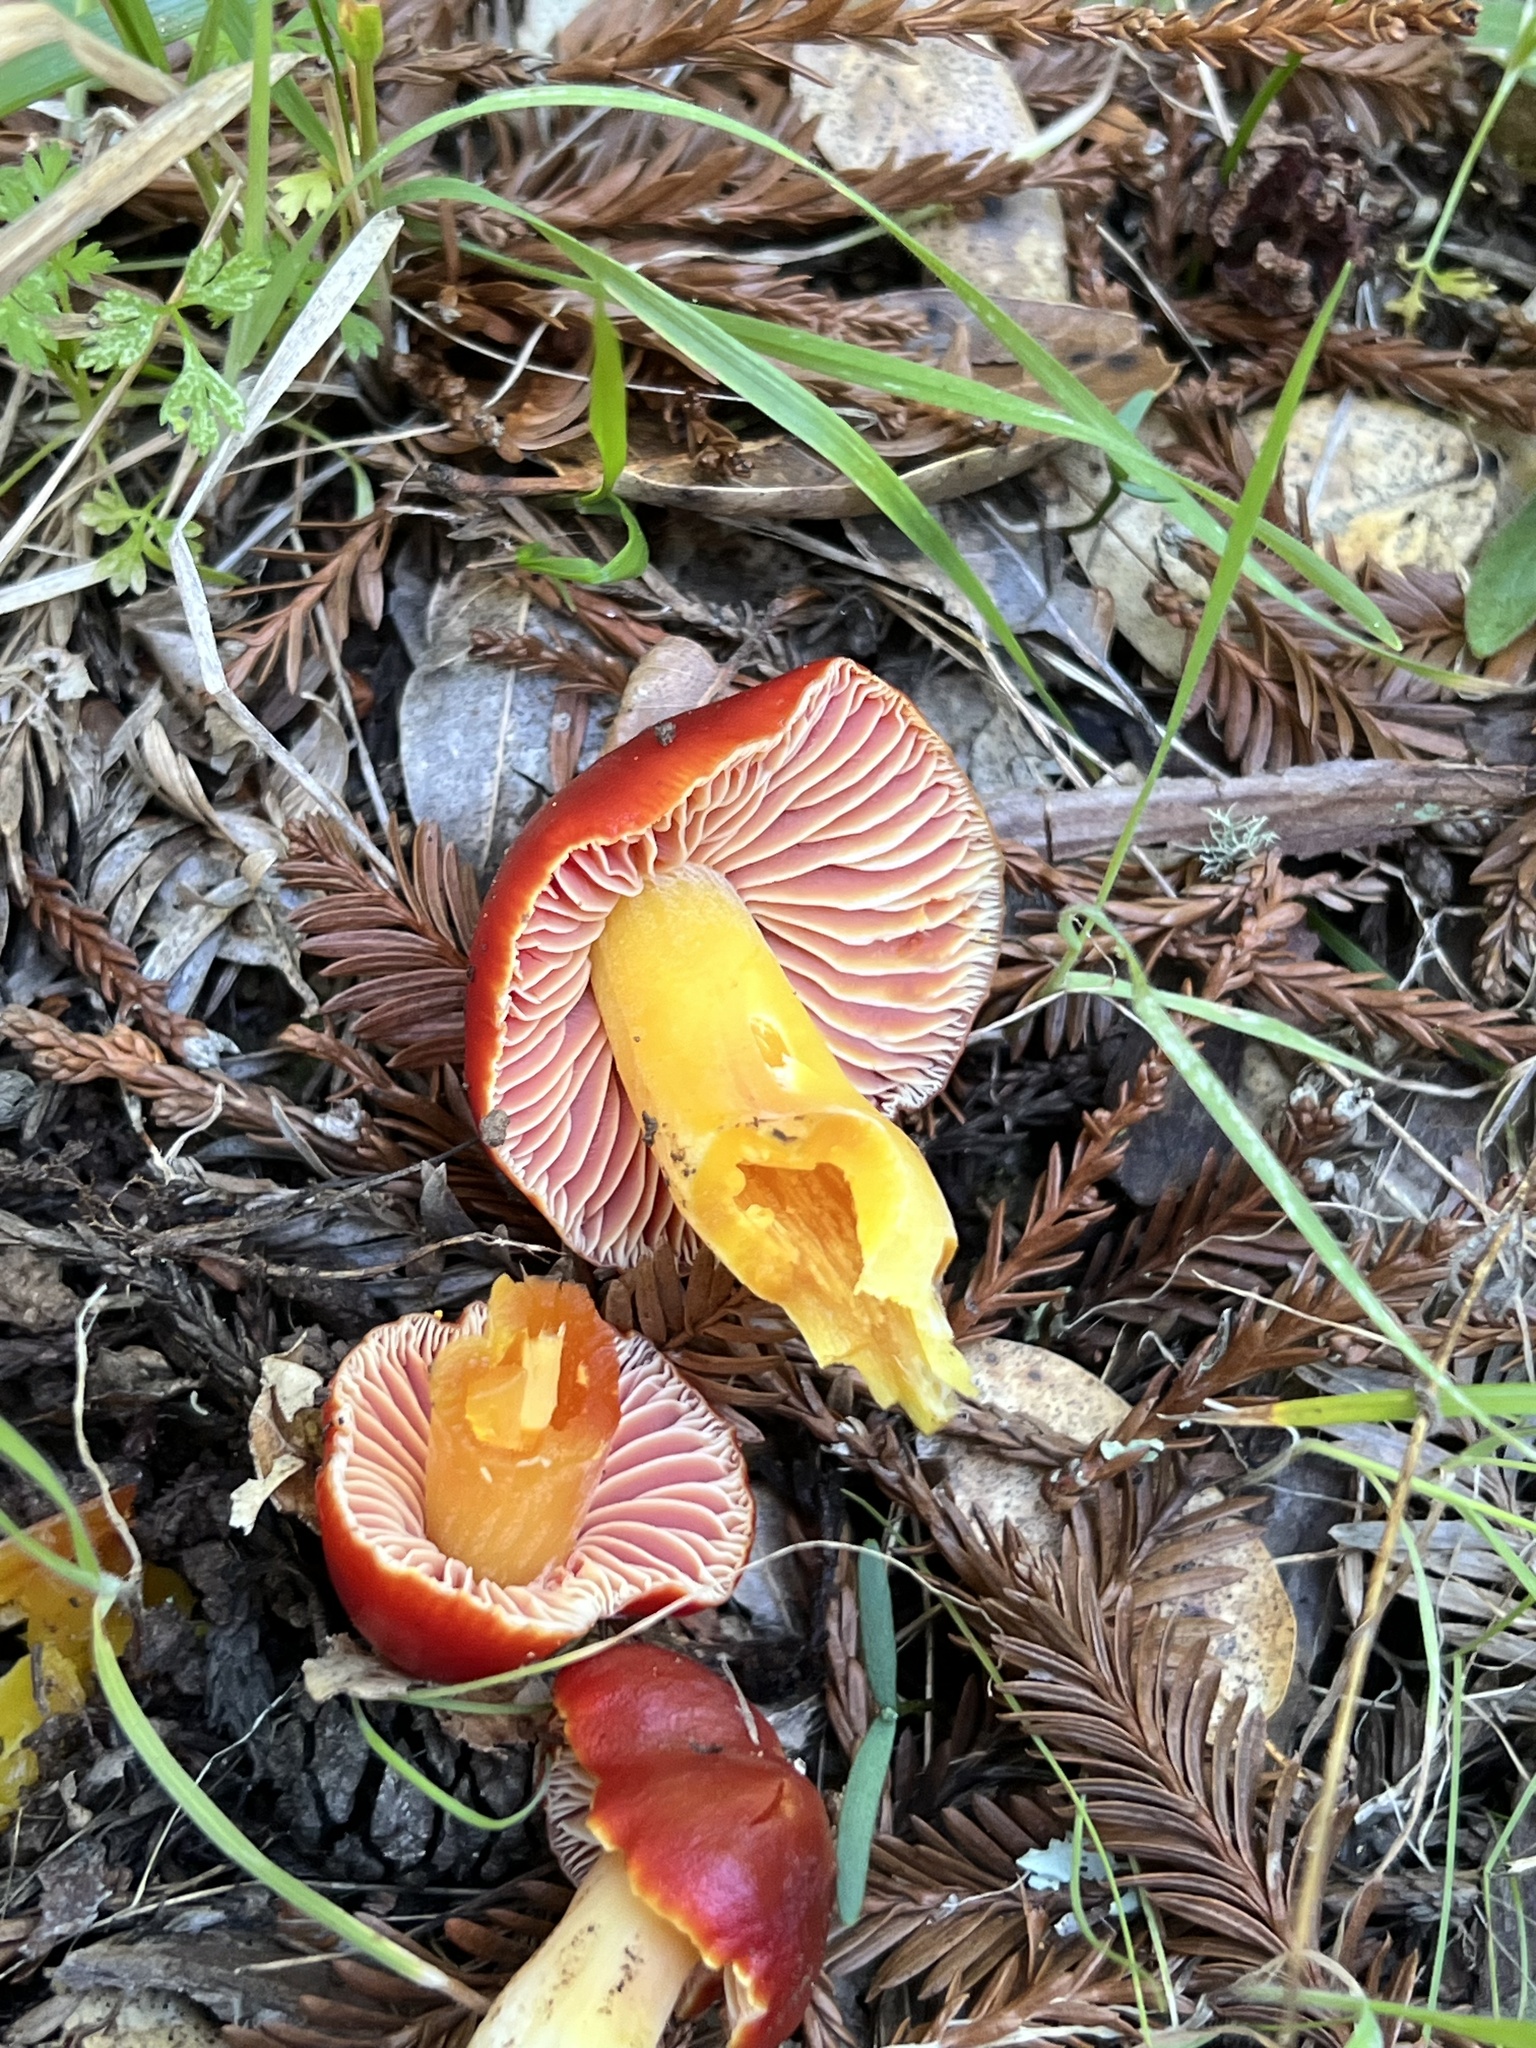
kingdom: Fungi
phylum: Basidiomycota
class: Agaricomycetes
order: Agaricales
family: Hygrophoraceae
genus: Hygrocybe
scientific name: Hygrocybe laetissima
